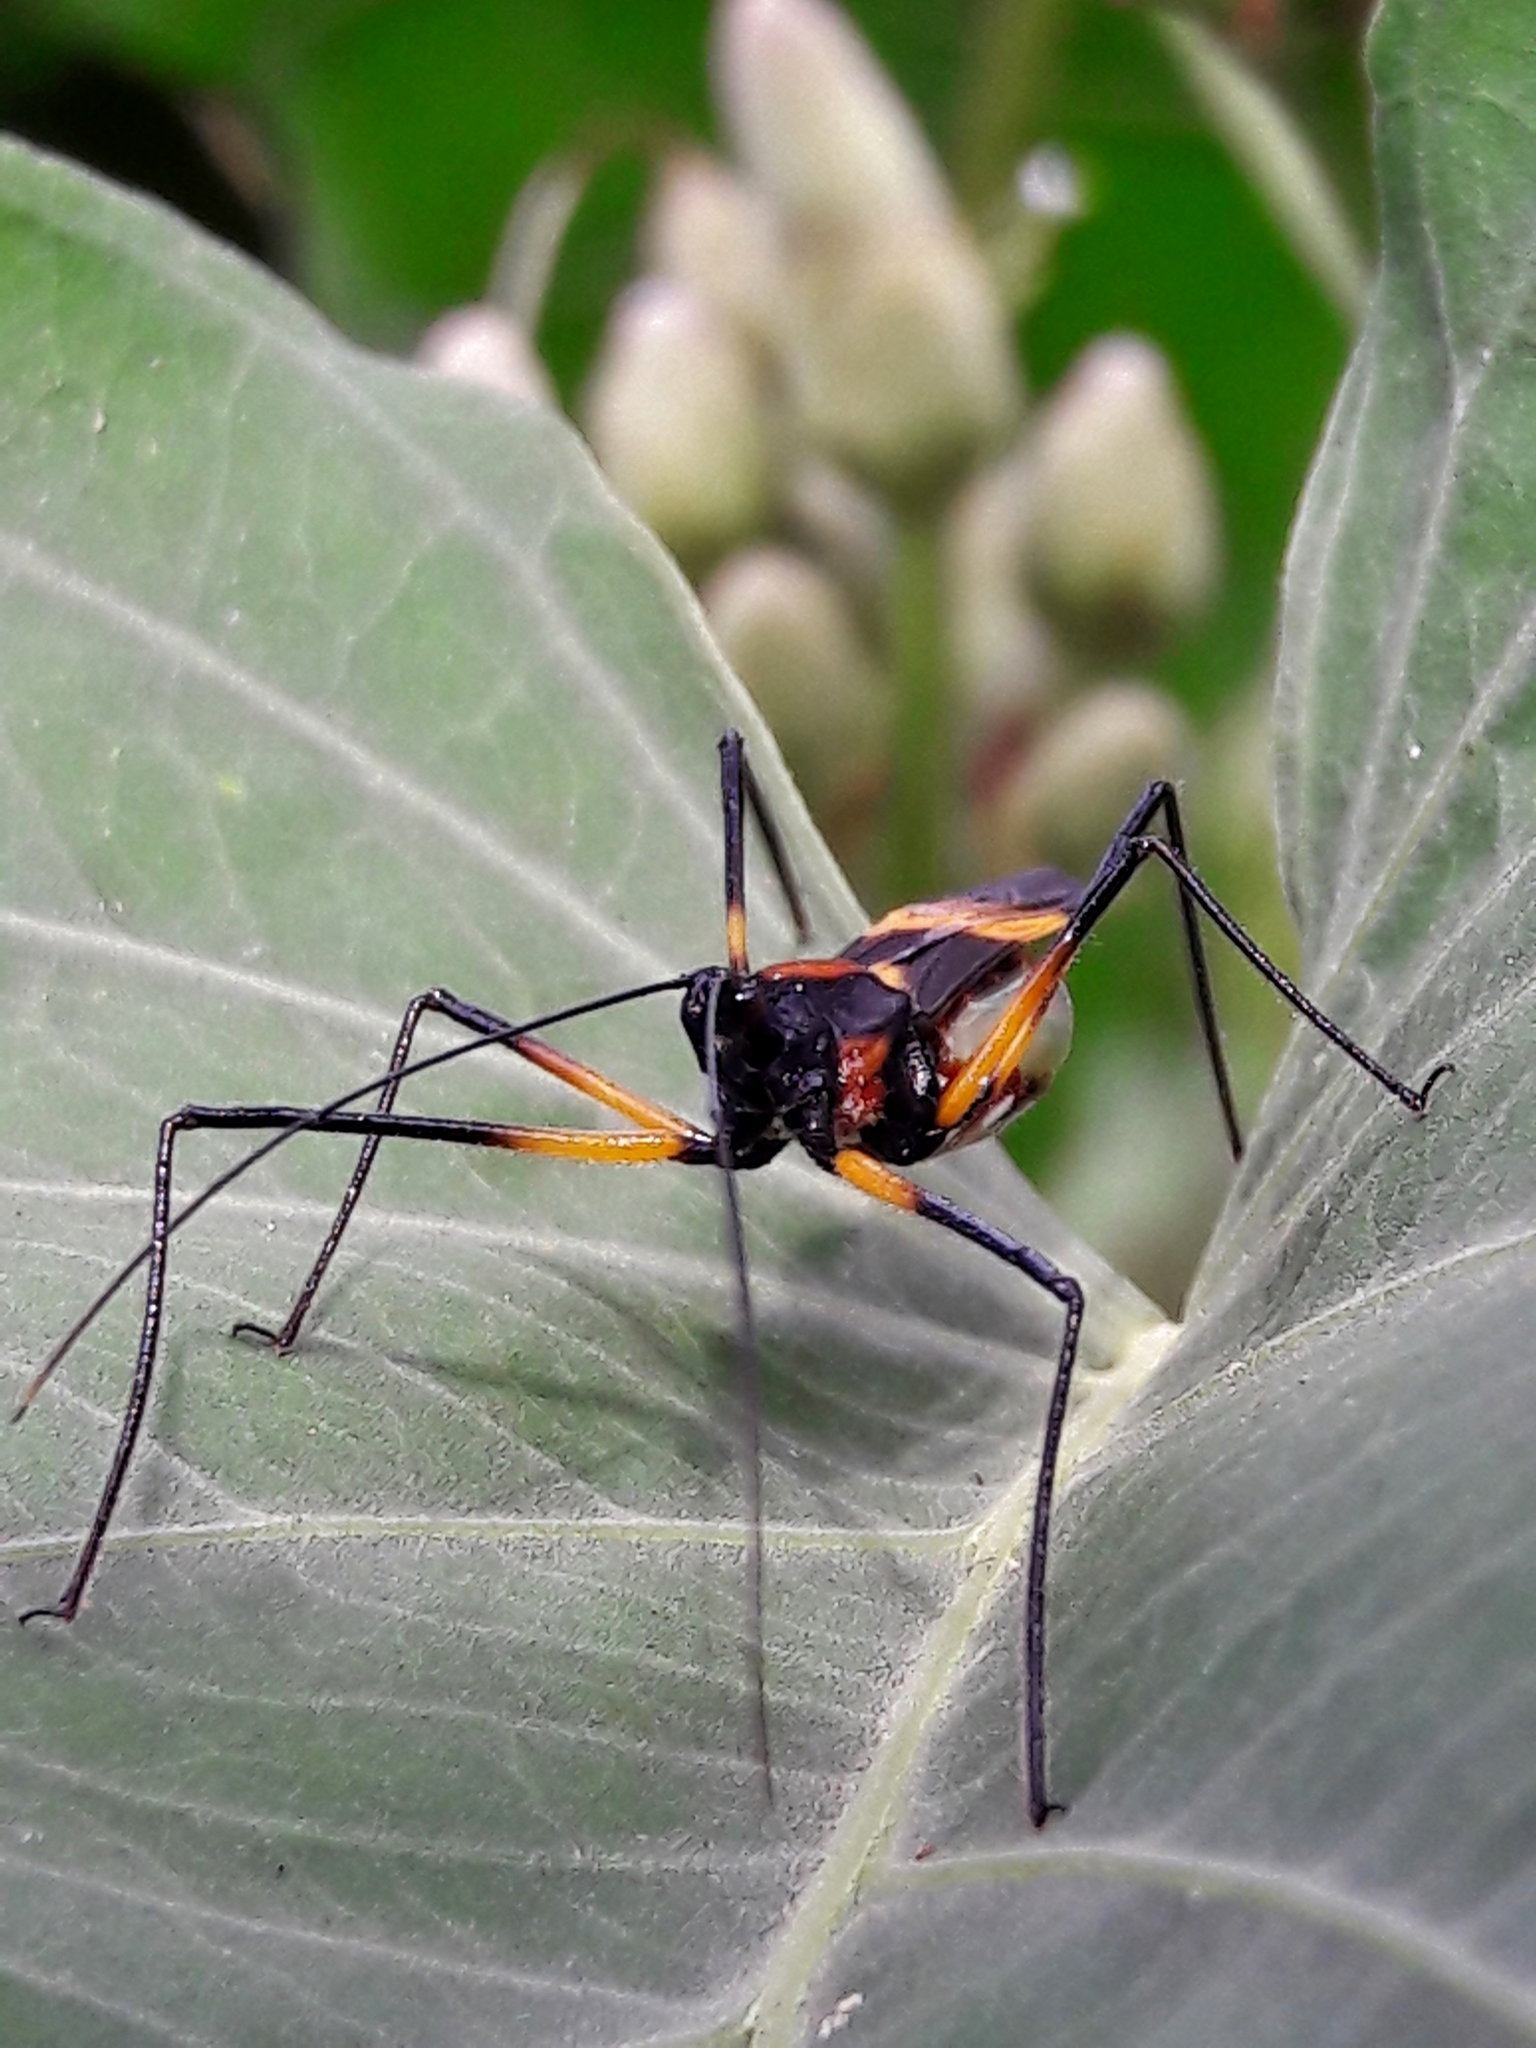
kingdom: Animalia
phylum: Arthropoda
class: Insecta
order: Hemiptera
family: Reduviidae
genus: Zelus
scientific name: Zelus errans
